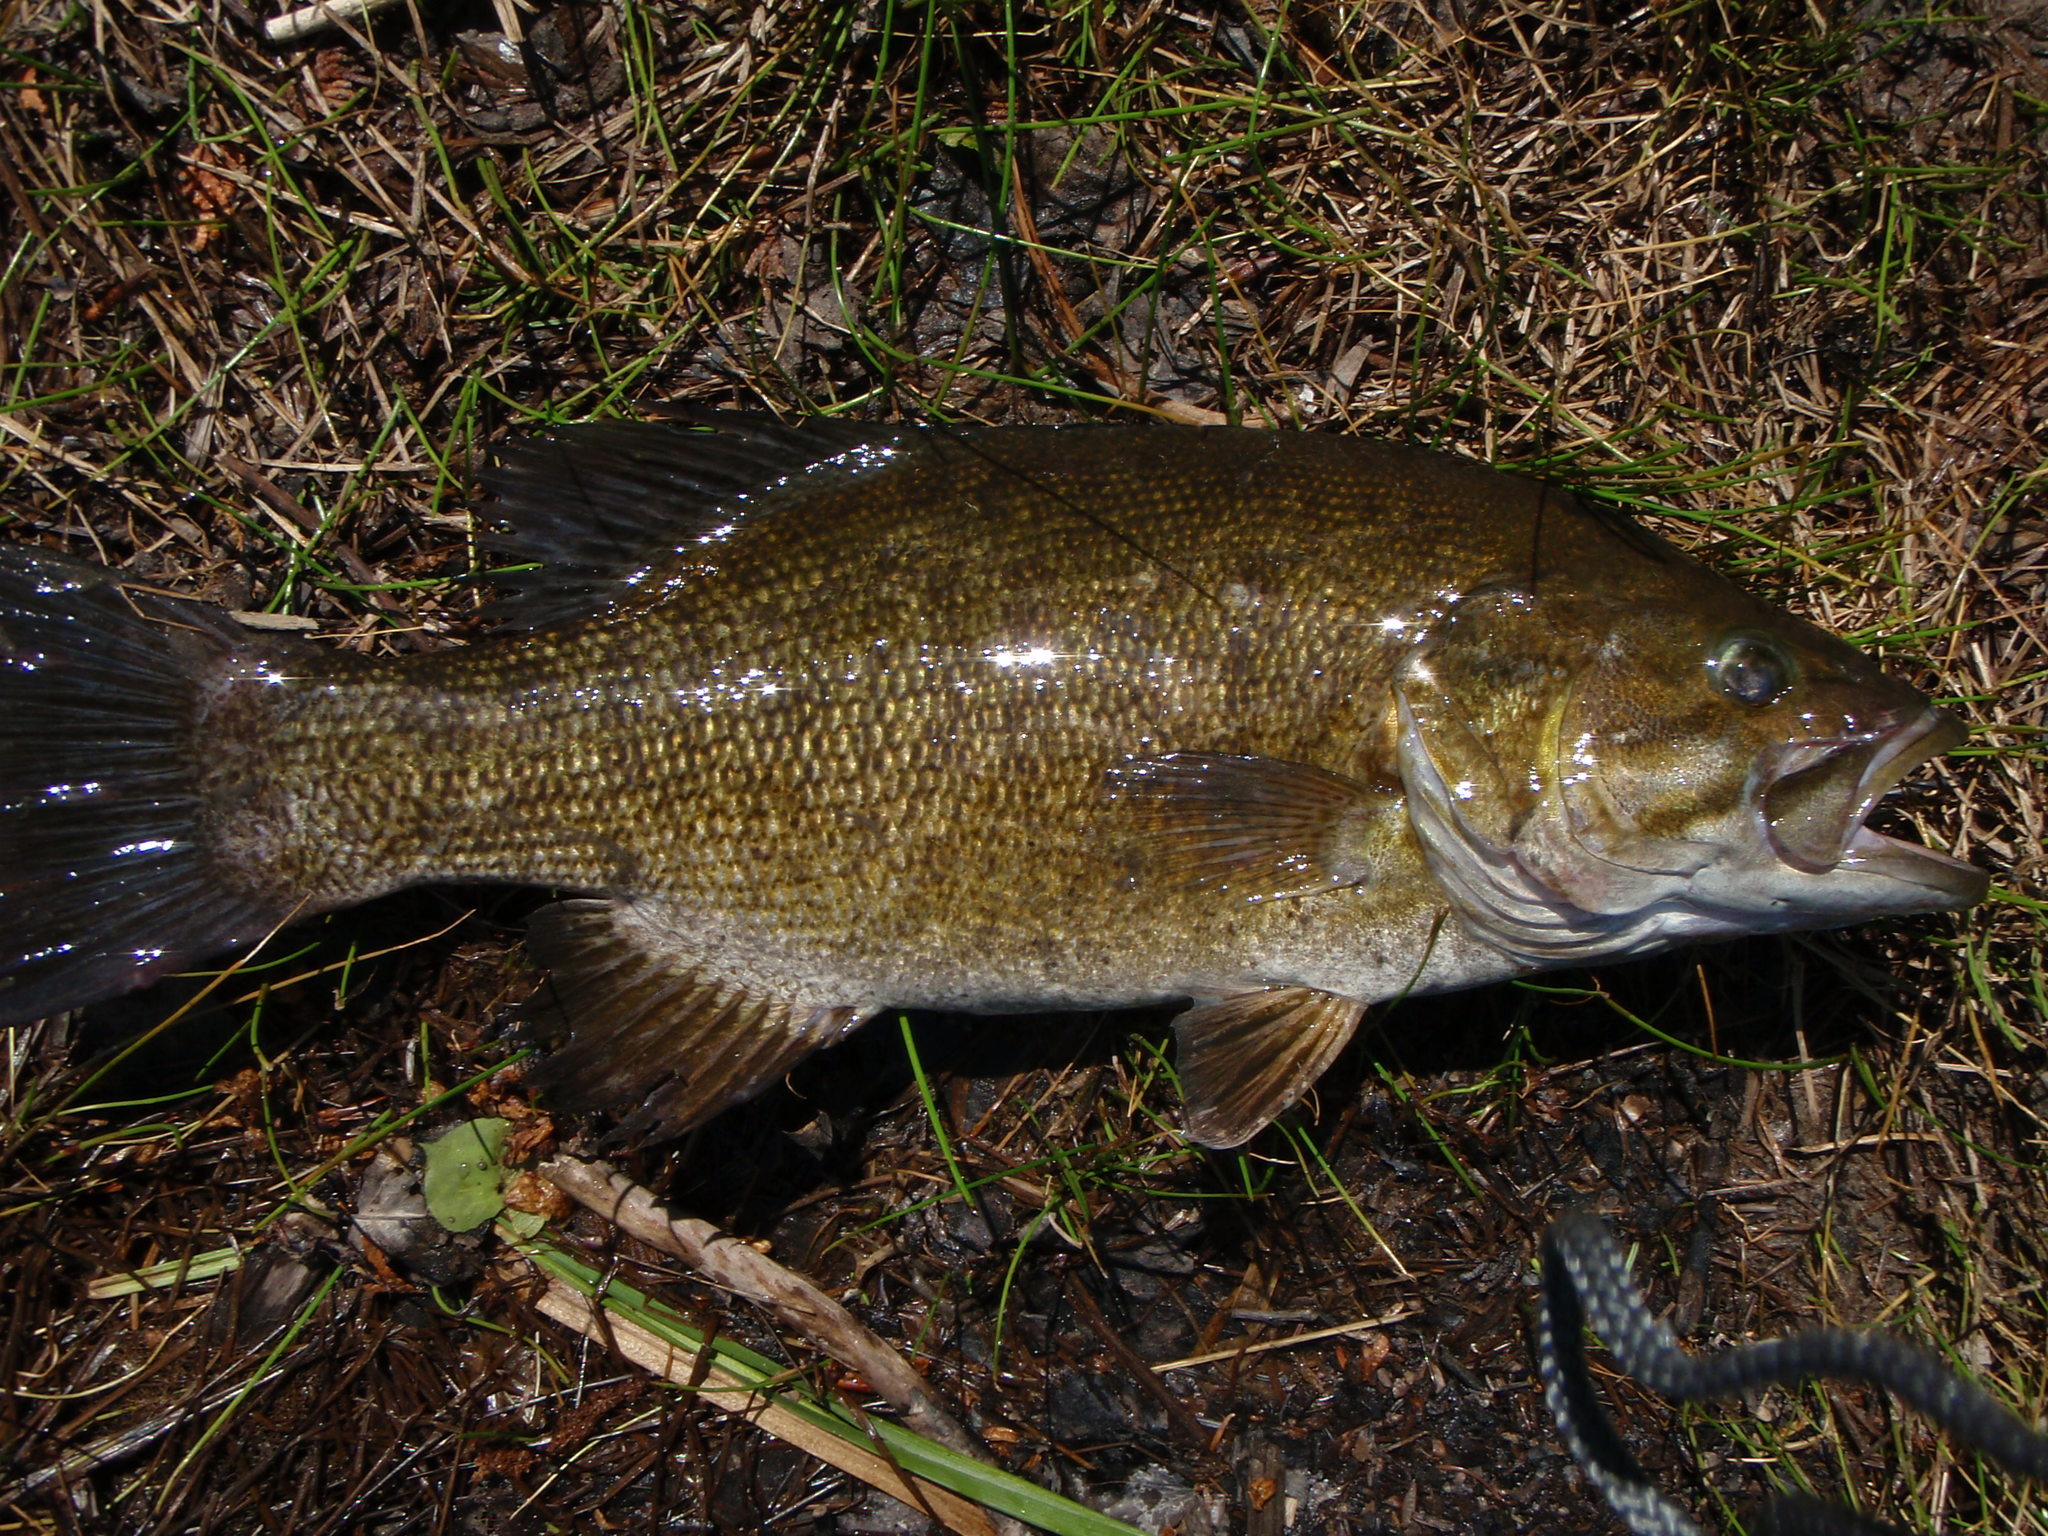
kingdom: Animalia
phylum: Chordata
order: Perciformes
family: Centrarchidae
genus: Micropterus
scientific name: Micropterus dolomieu
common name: Smallmouth bass
